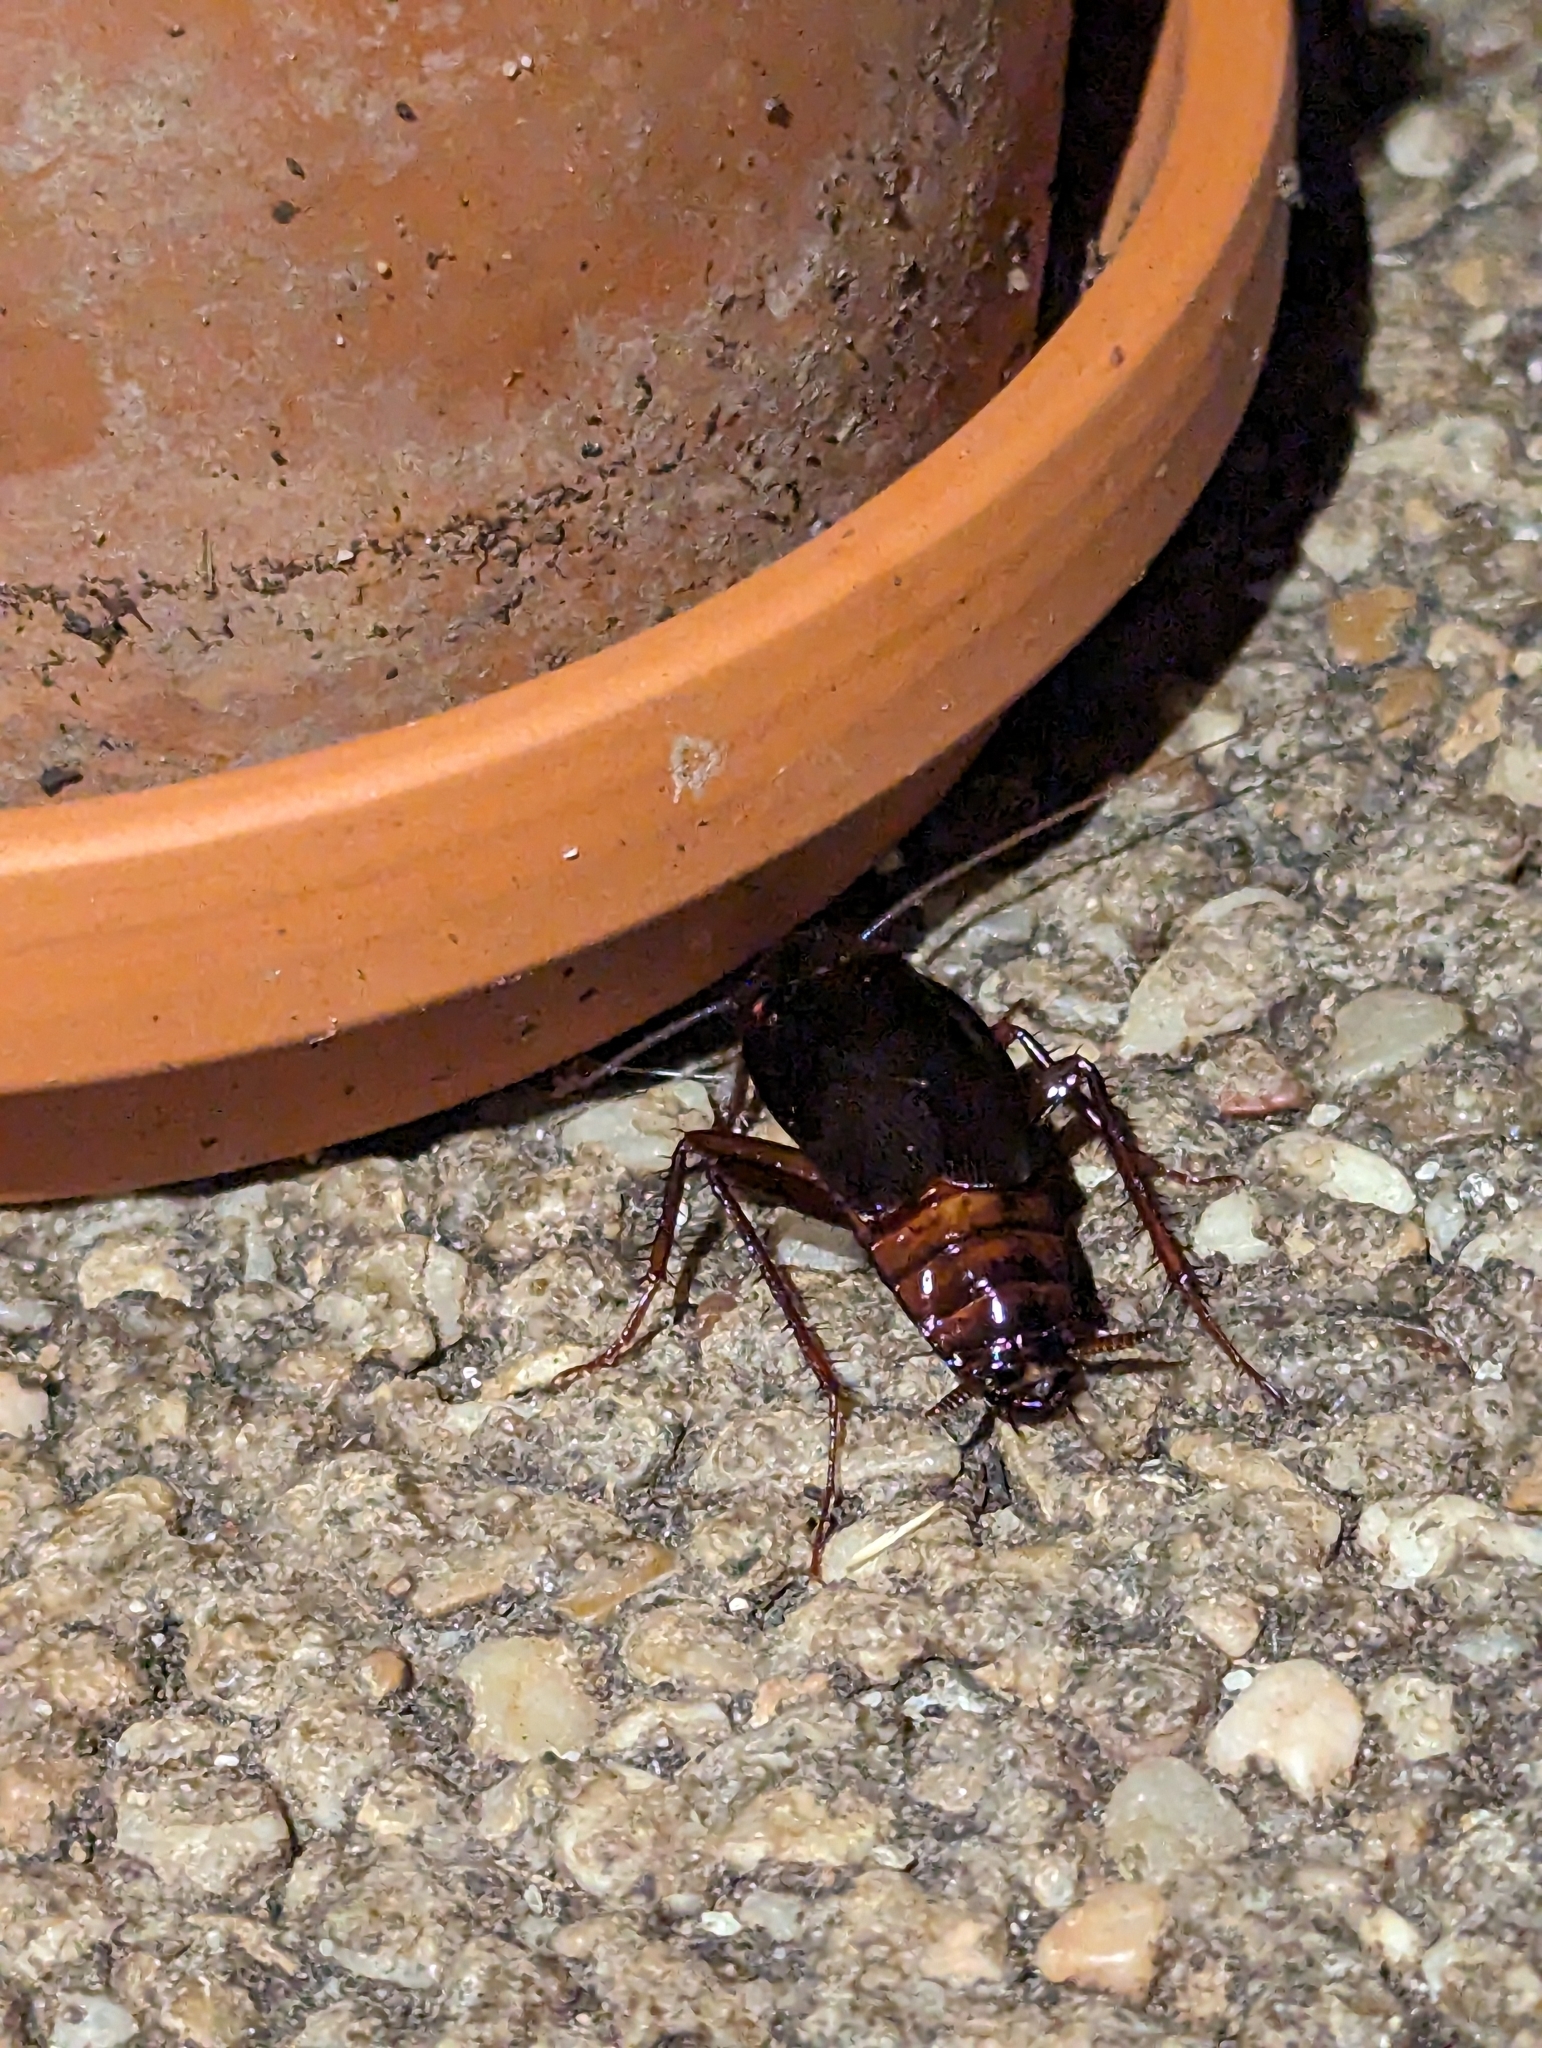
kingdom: Animalia
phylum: Arthropoda
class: Insecta
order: Blattodea
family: Blattidae
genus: Blatta
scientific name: Blatta orientalis
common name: Oriental cockroach
